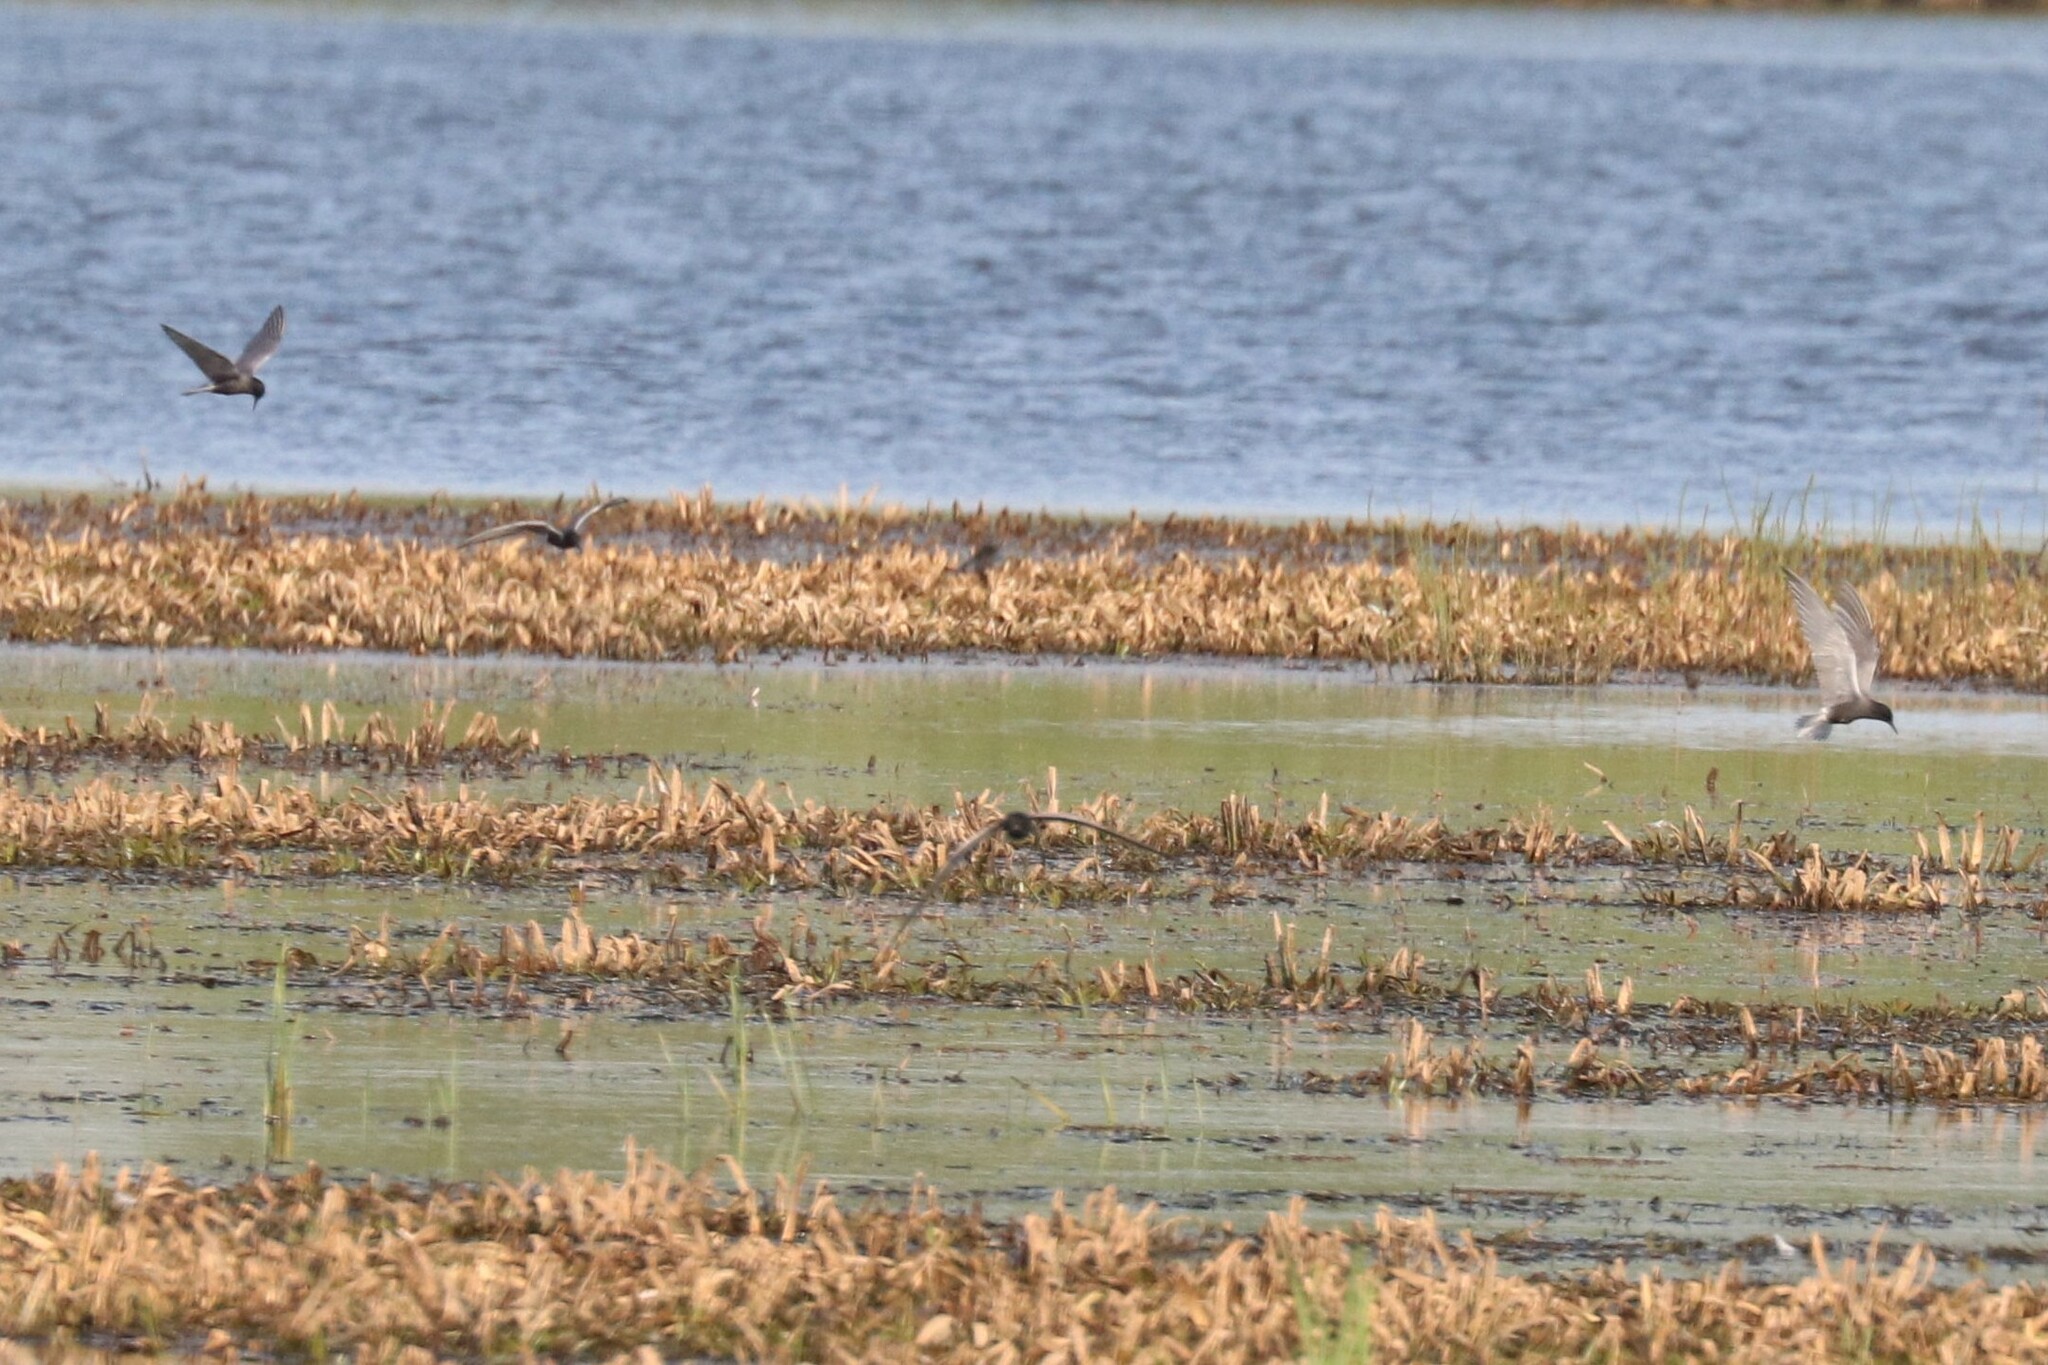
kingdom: Animalia
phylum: Chordata
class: Aves
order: Charadriiformes
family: Laridae
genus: Chlidonias
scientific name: Chlidonias niger
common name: Black tern
